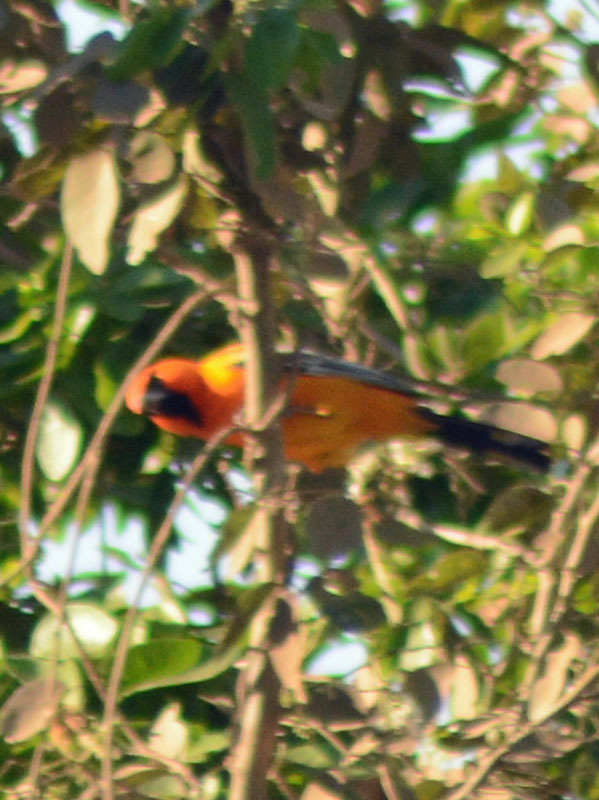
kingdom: Animalia
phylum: Chordata
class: Aves
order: Passeriformes
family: Icteridae
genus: Icterus
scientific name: Icterus pustulatus
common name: Streak-backed oriole
